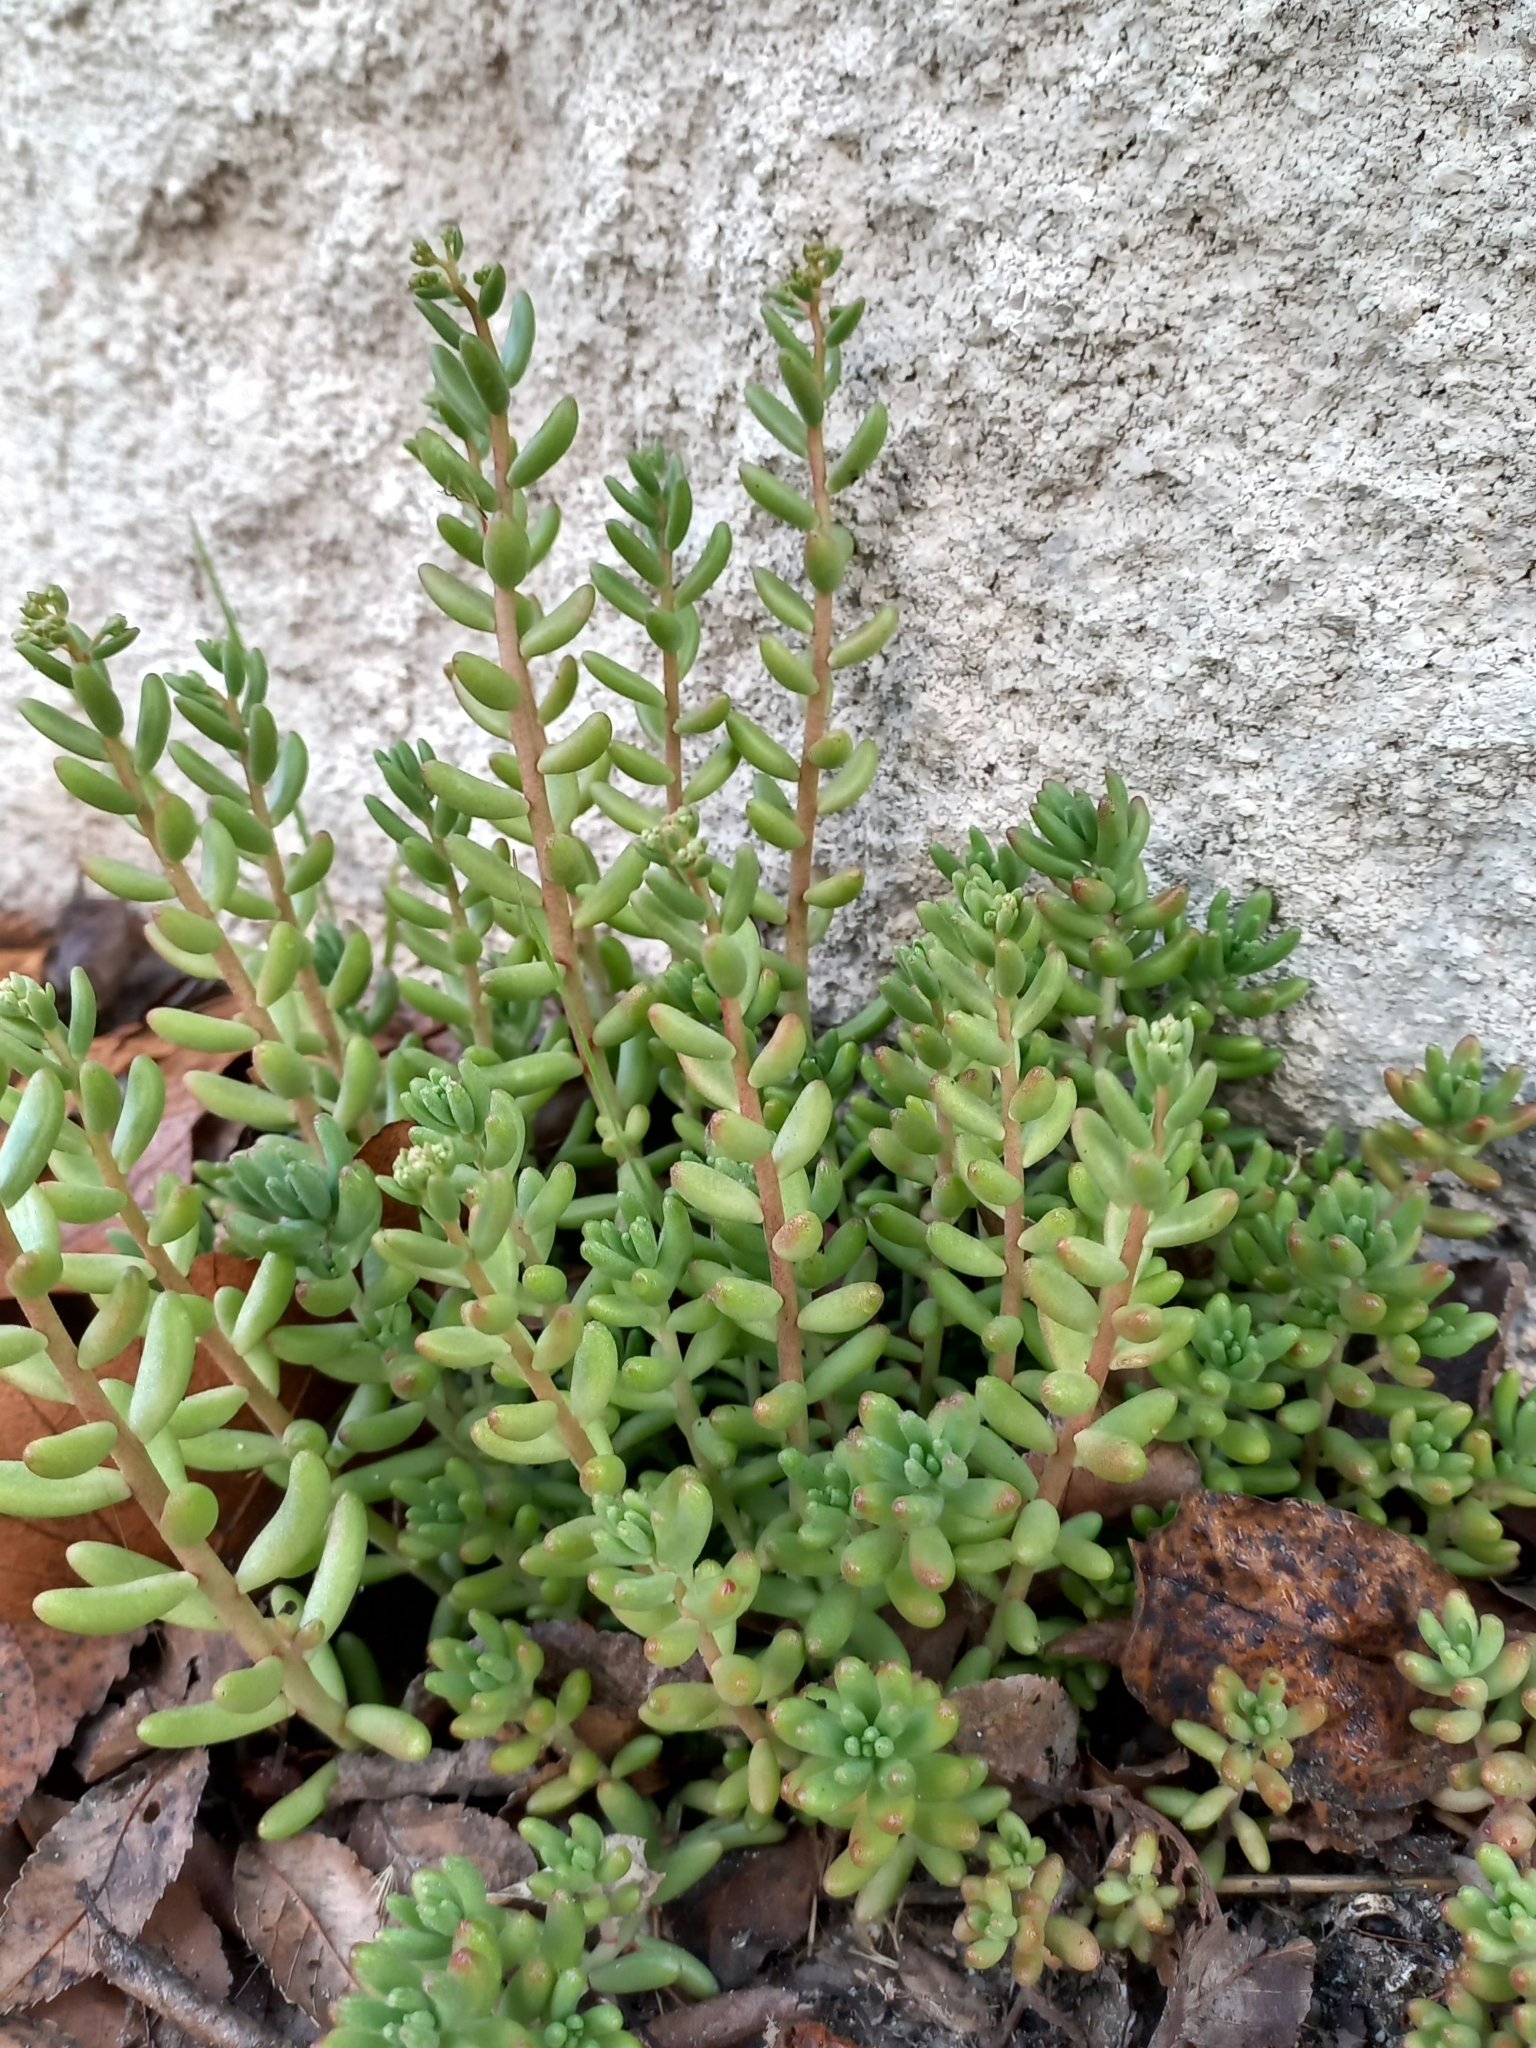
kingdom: Plantae
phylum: Tracheophyta
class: Magnoliopsida
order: Saxifragales
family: Crassulaceae
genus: Sedum
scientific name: Sedum album
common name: White stonecrop
